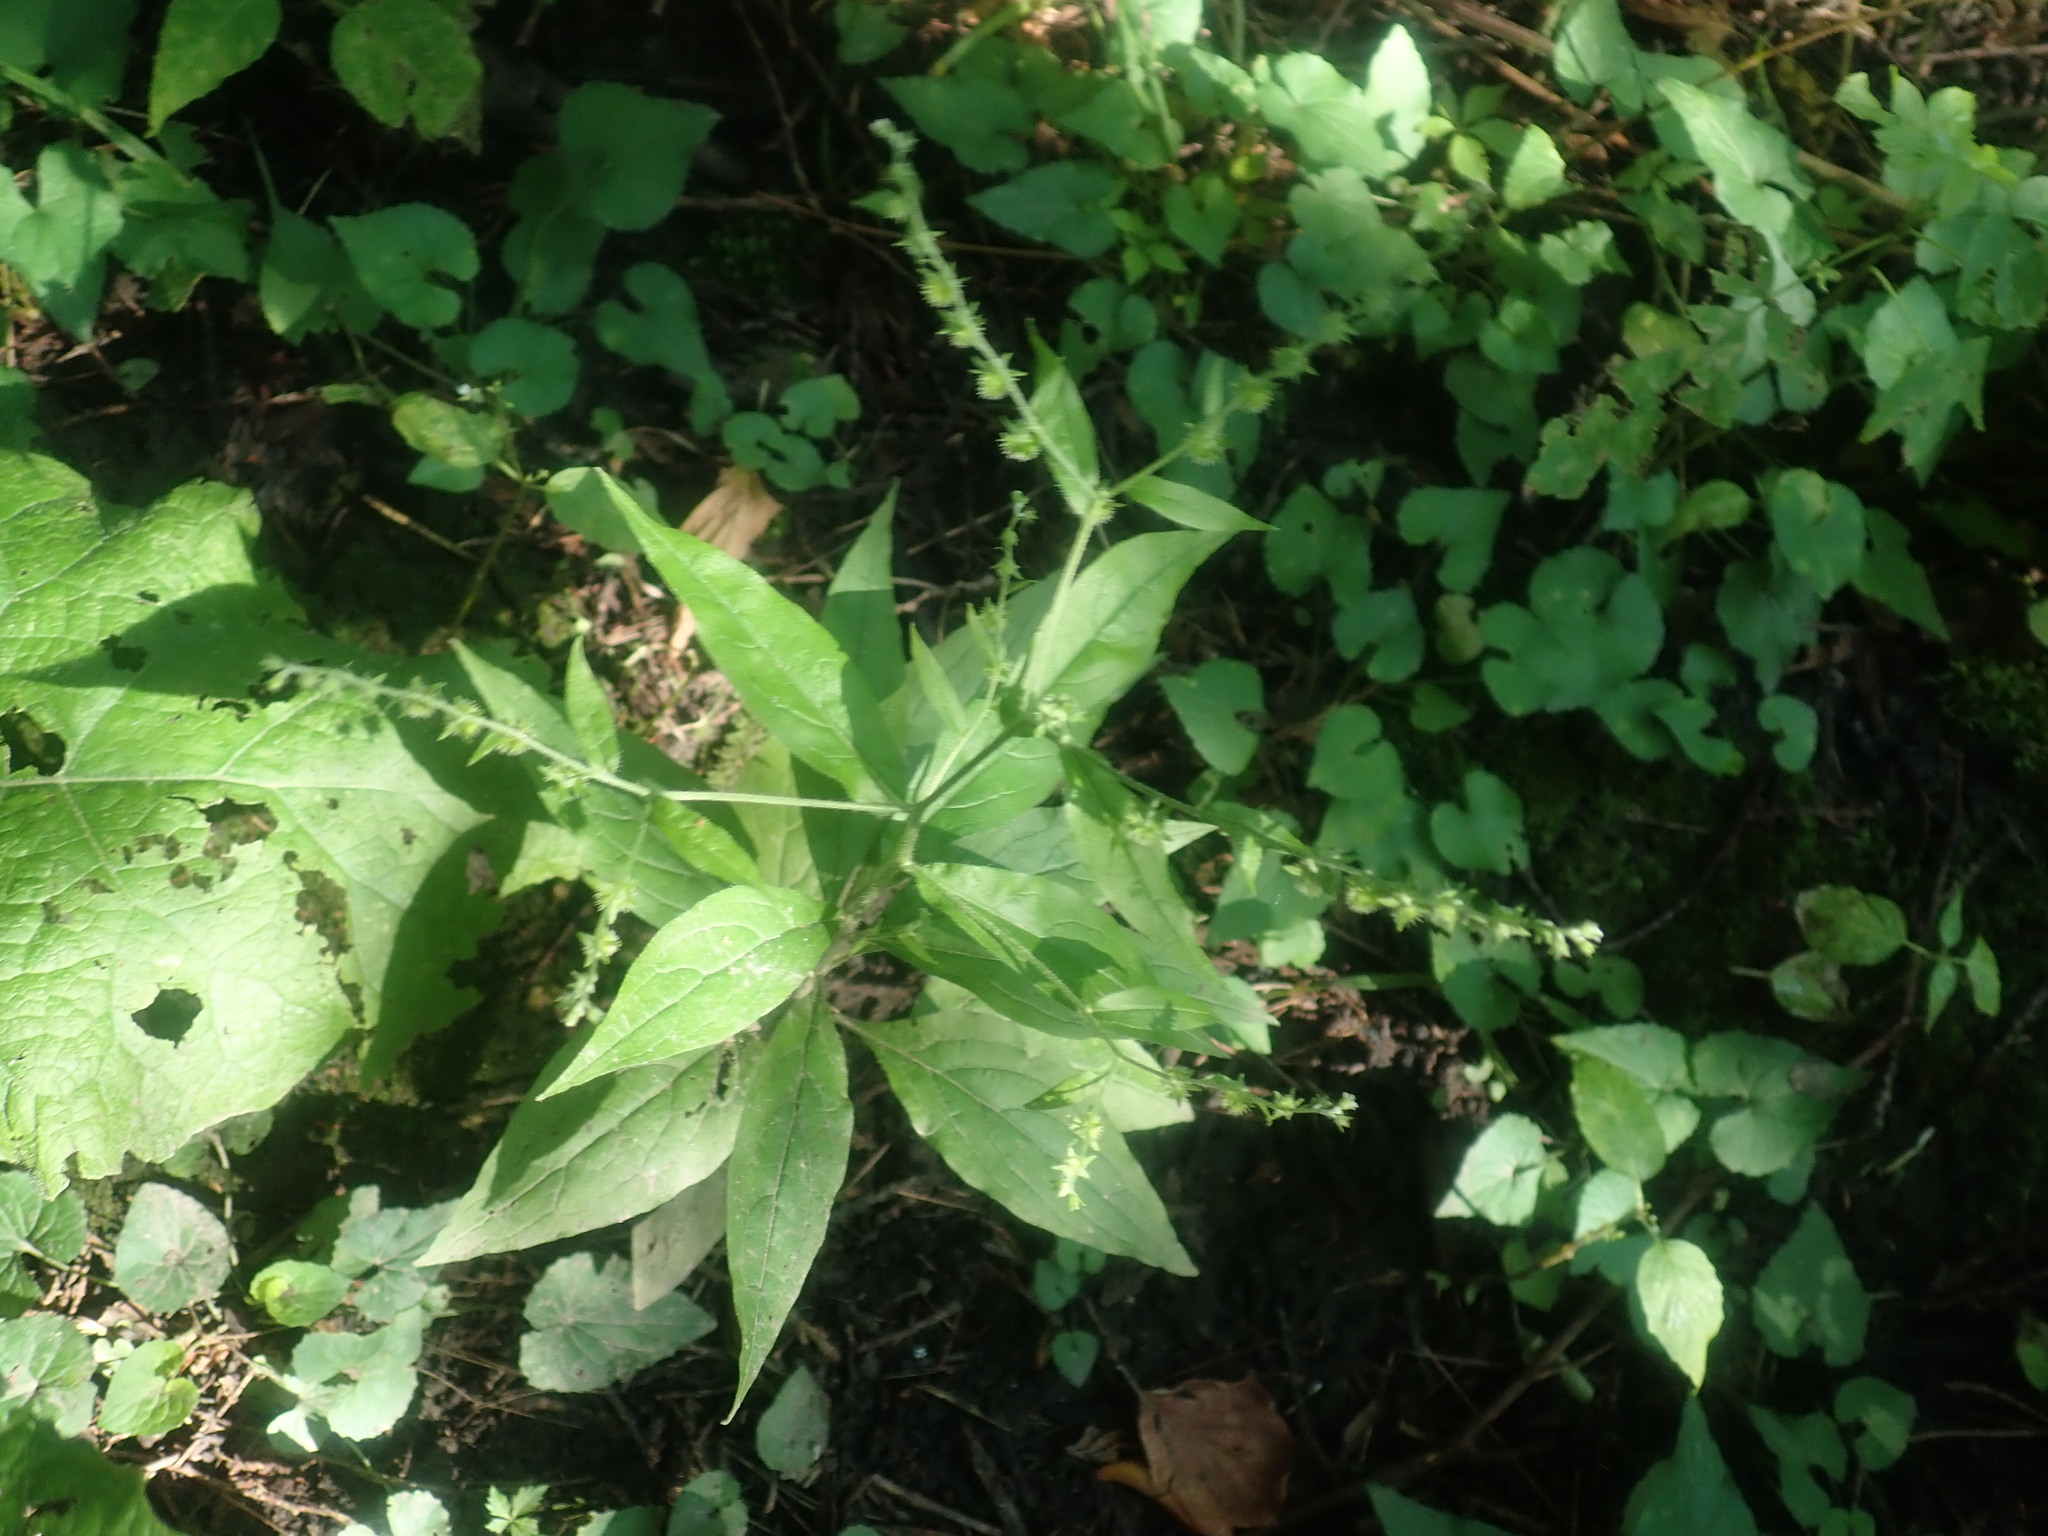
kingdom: Plantae
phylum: Tracheophyta
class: Magnoliopsida
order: Boraginales
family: Boraginaceae
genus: Hackelia
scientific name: Hackelia virginiana
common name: Beggar's-lice
